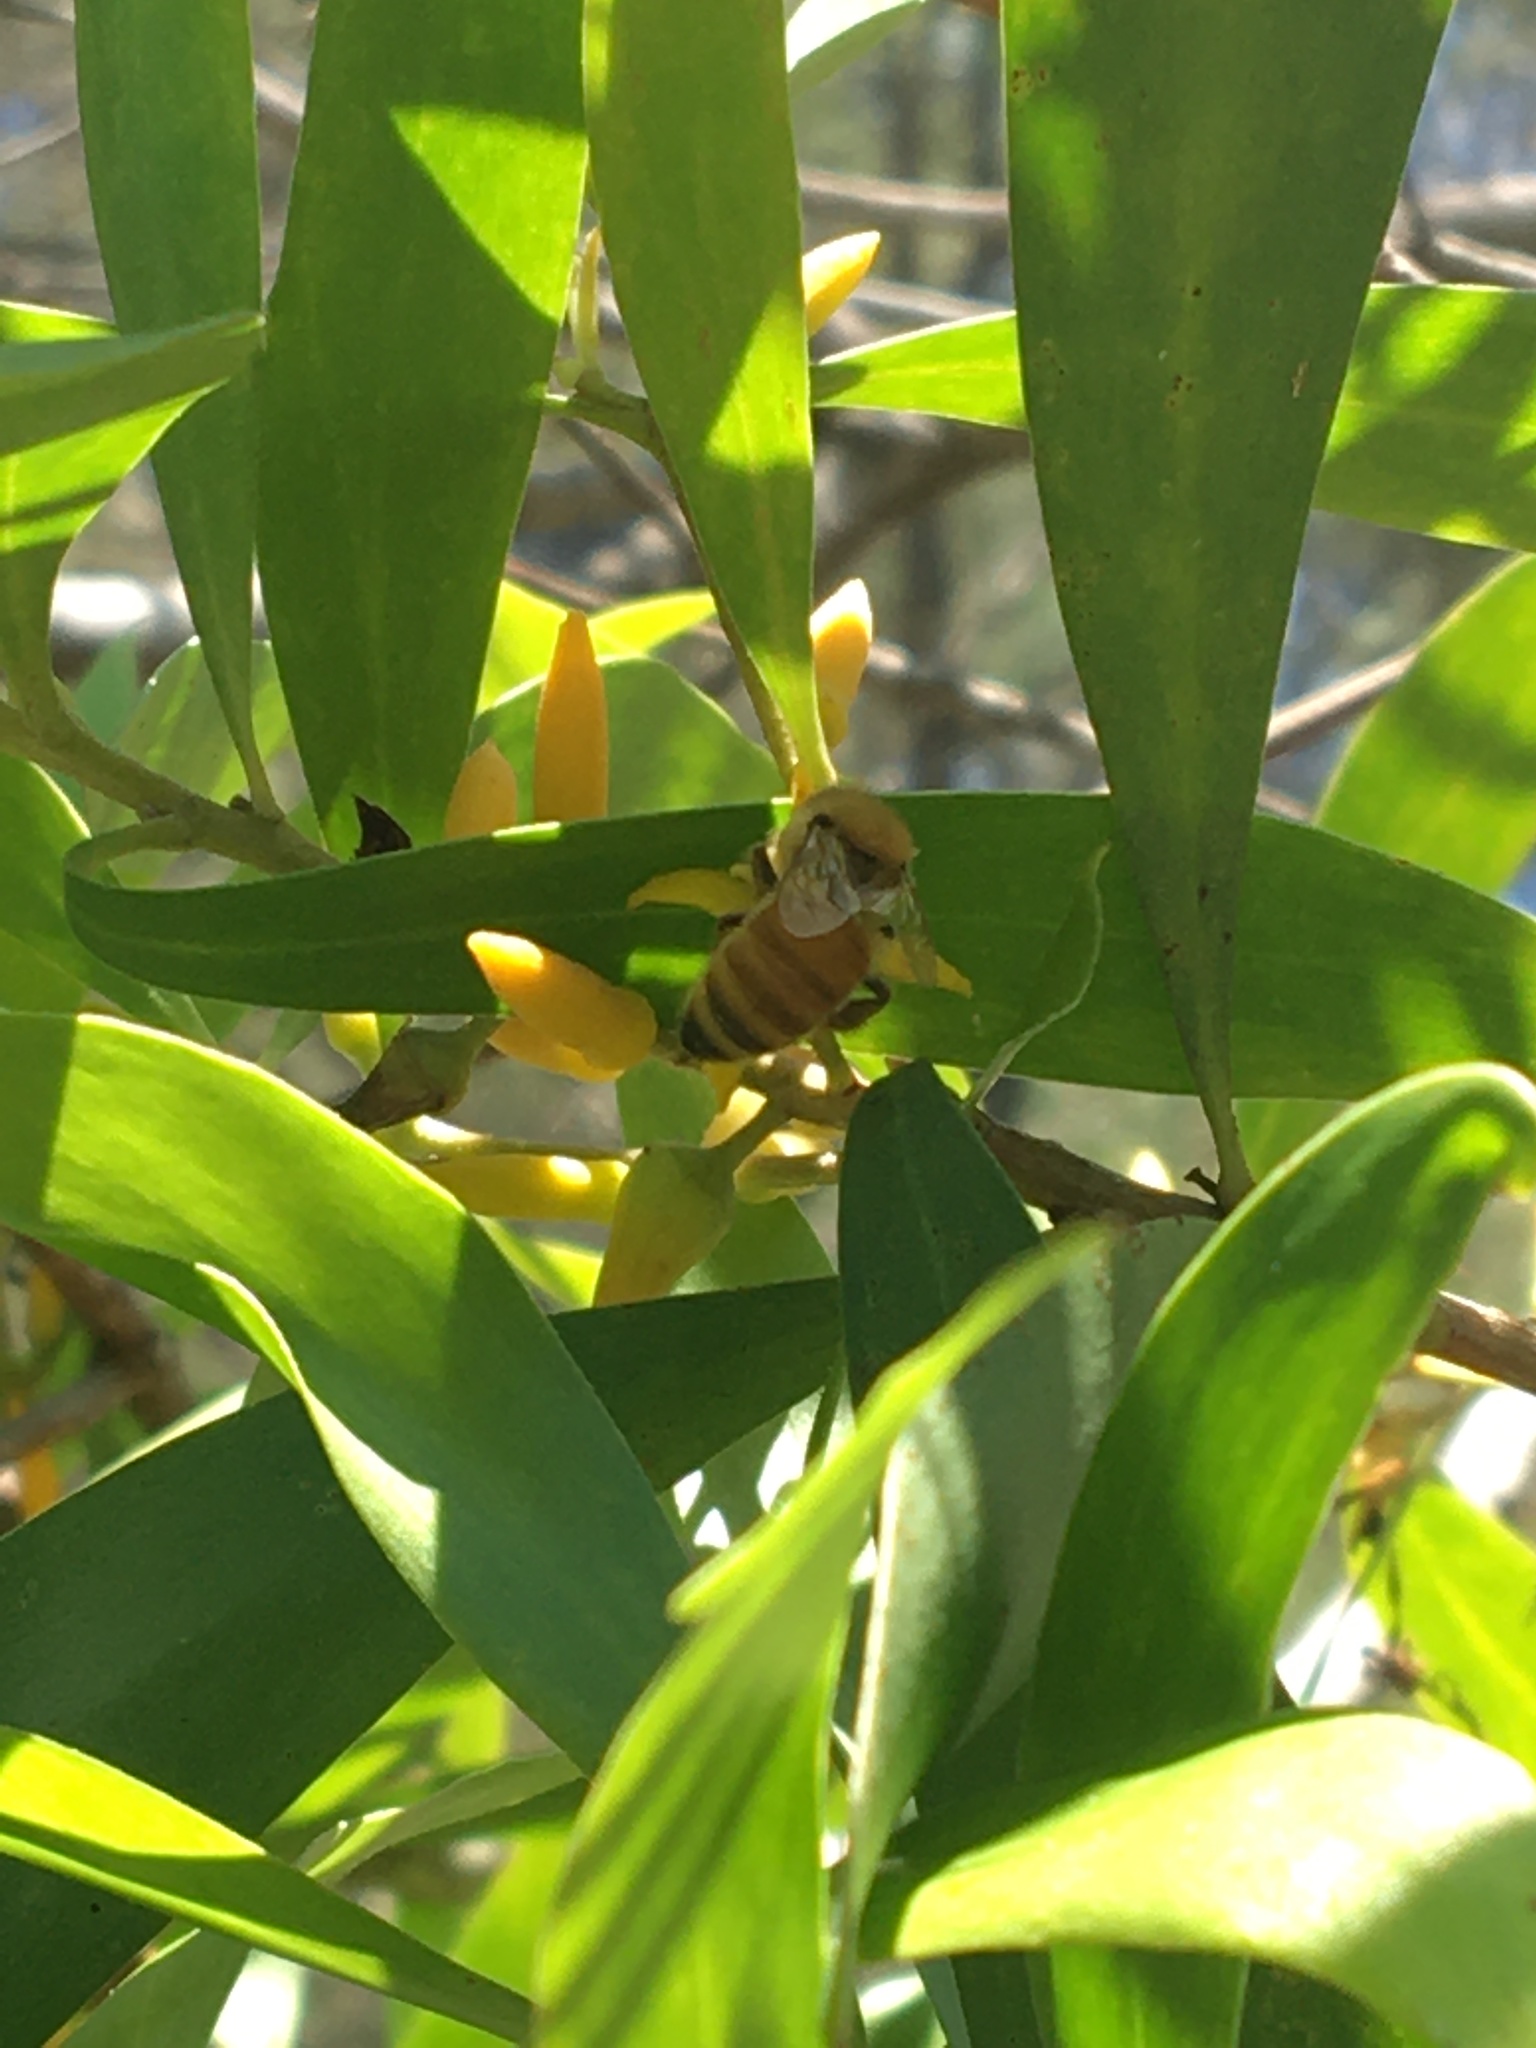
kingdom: Animalia
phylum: Arthropoda
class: Insecta
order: Hymenoptera
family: Apidae
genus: Apis
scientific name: Apis mellifera
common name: Honey bee
